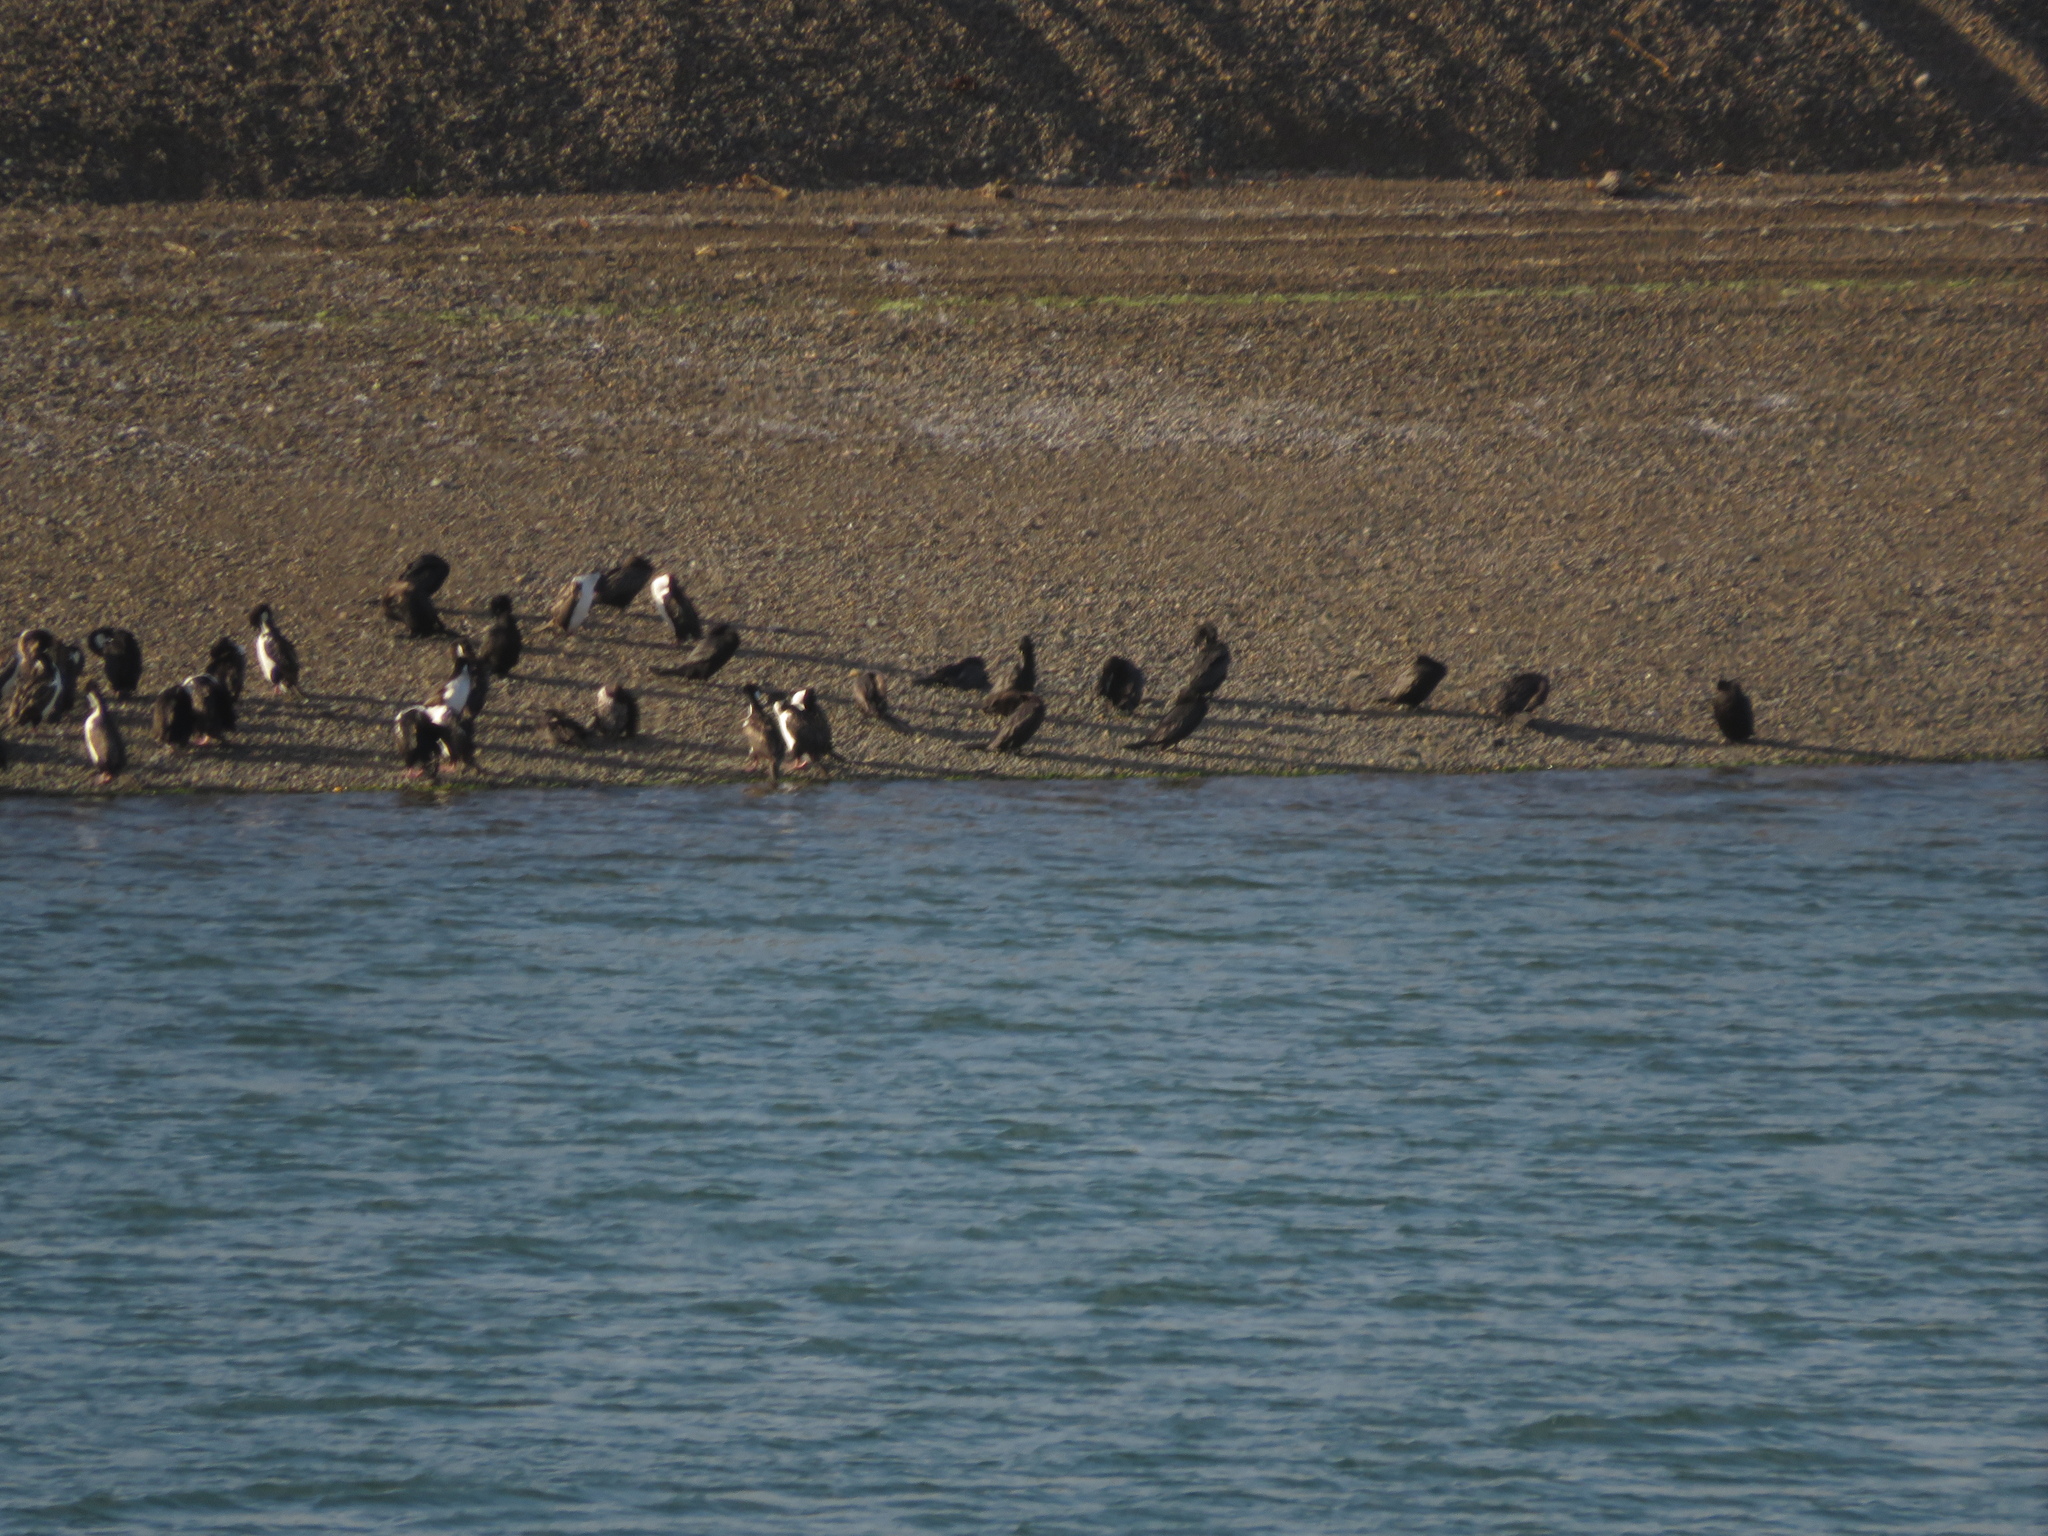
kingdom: Animalia
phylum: Chordata
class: Aves
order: Suliformes
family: Phalacrocoracidae
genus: Leucocarbo
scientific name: Leucocarbo atriceps
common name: Imperial shag
